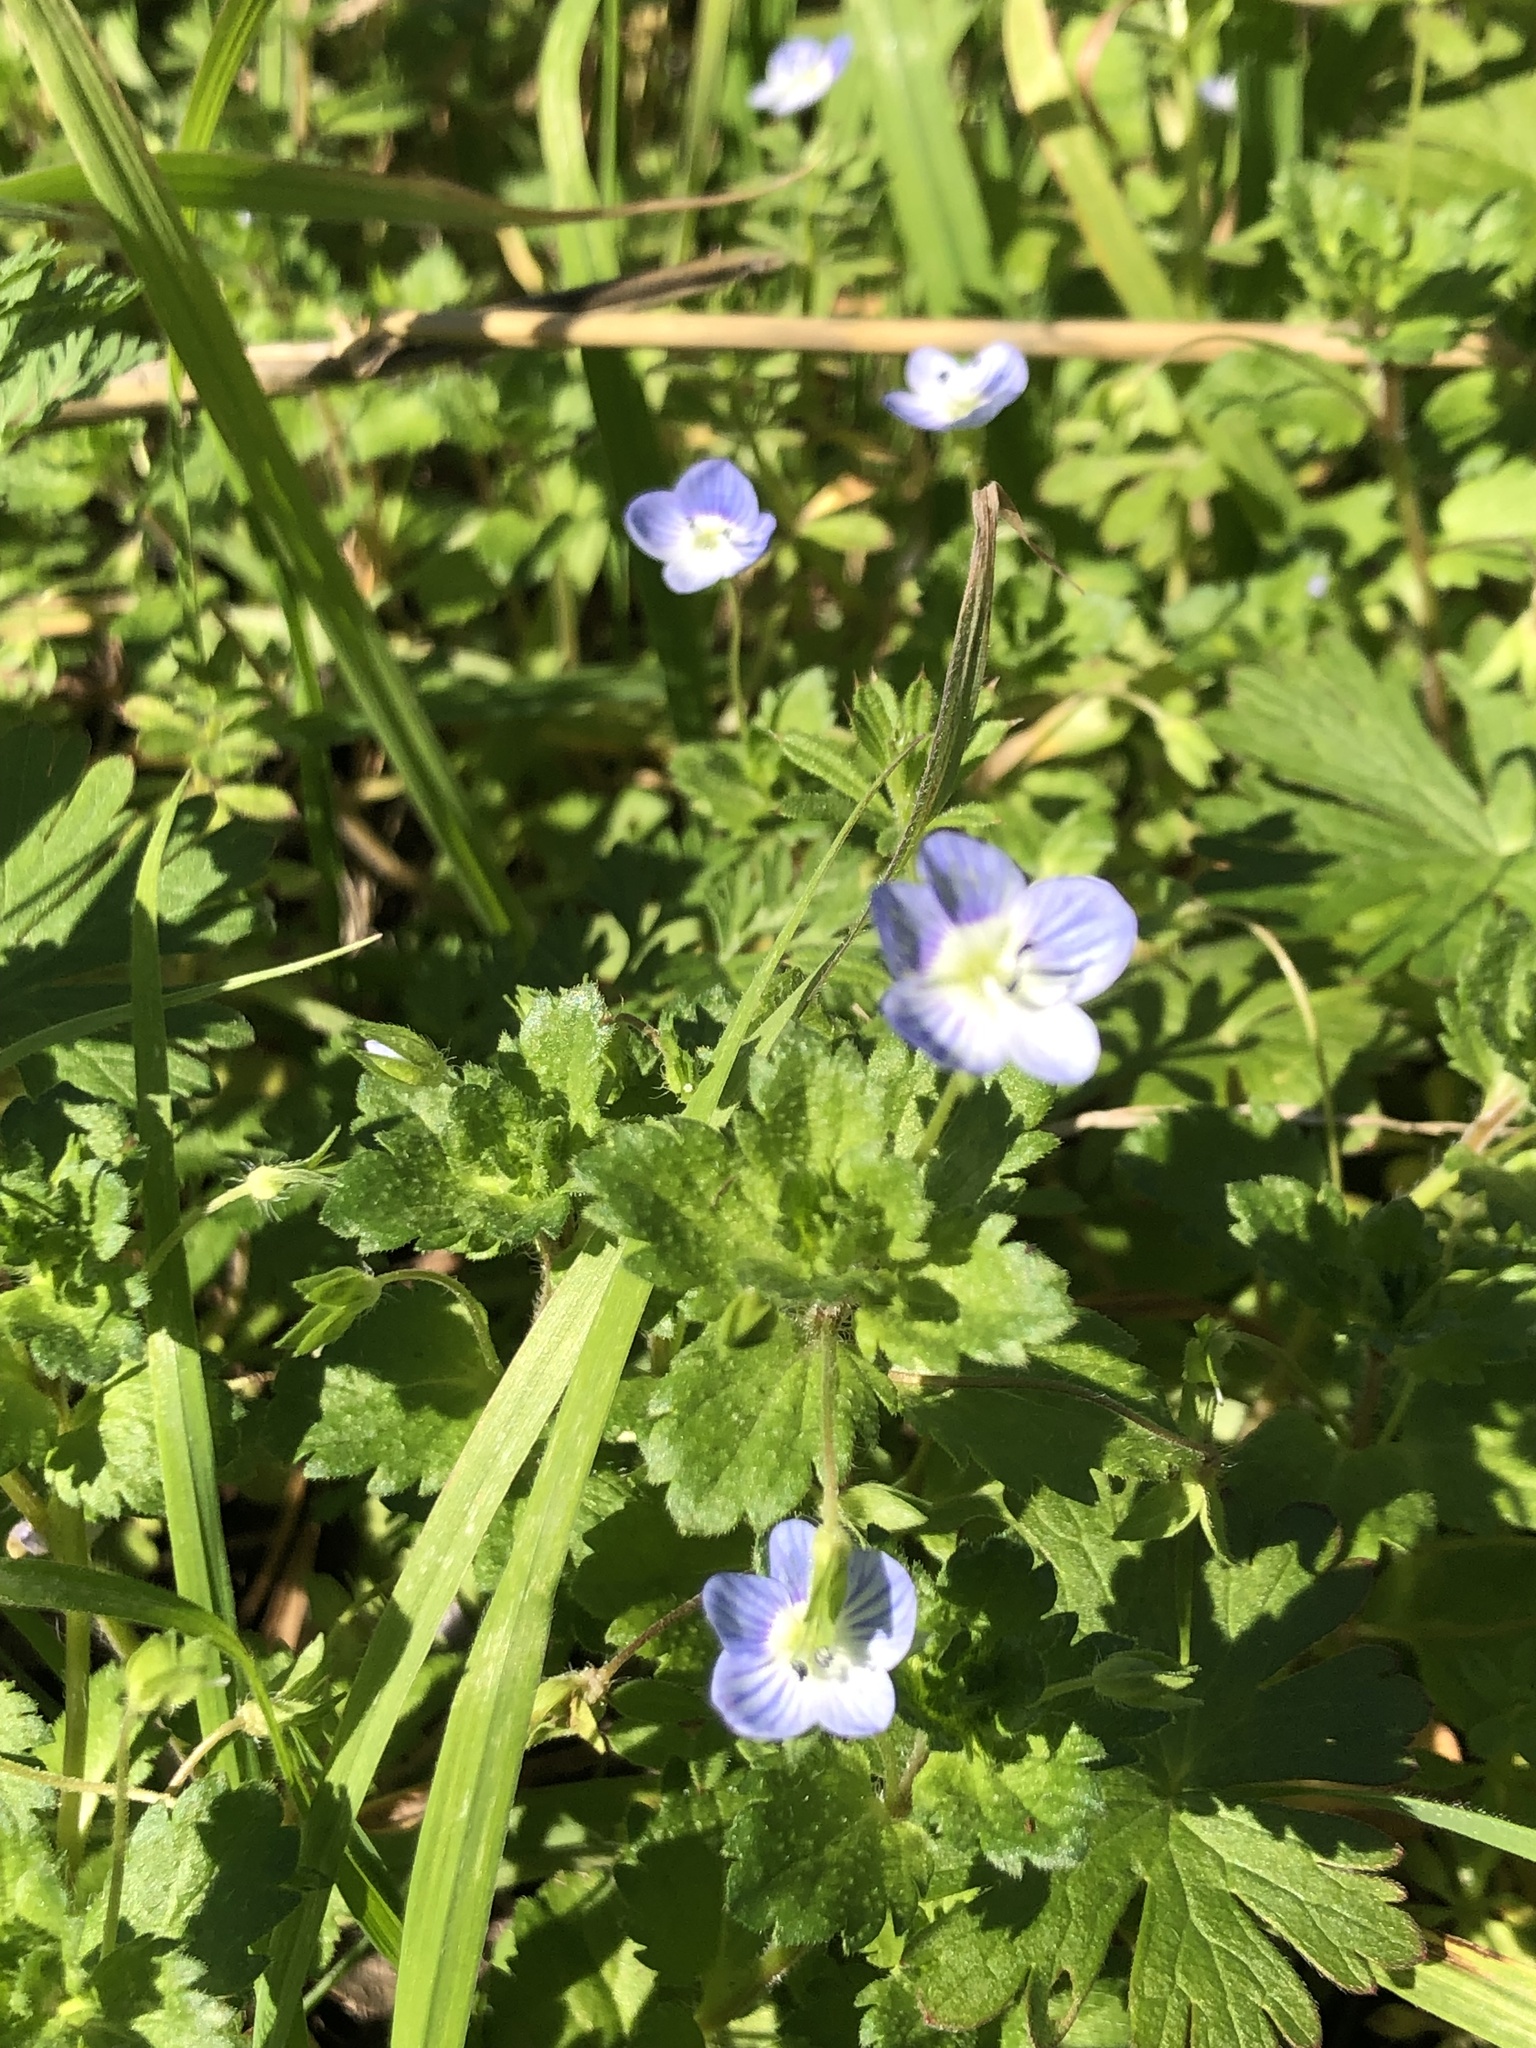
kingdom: Plantae
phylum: Tracheophyta
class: Magnoliopsida
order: Lamiales
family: Plantaginaceae
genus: Veronica
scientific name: Veronica persica
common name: Common field-speedwell
